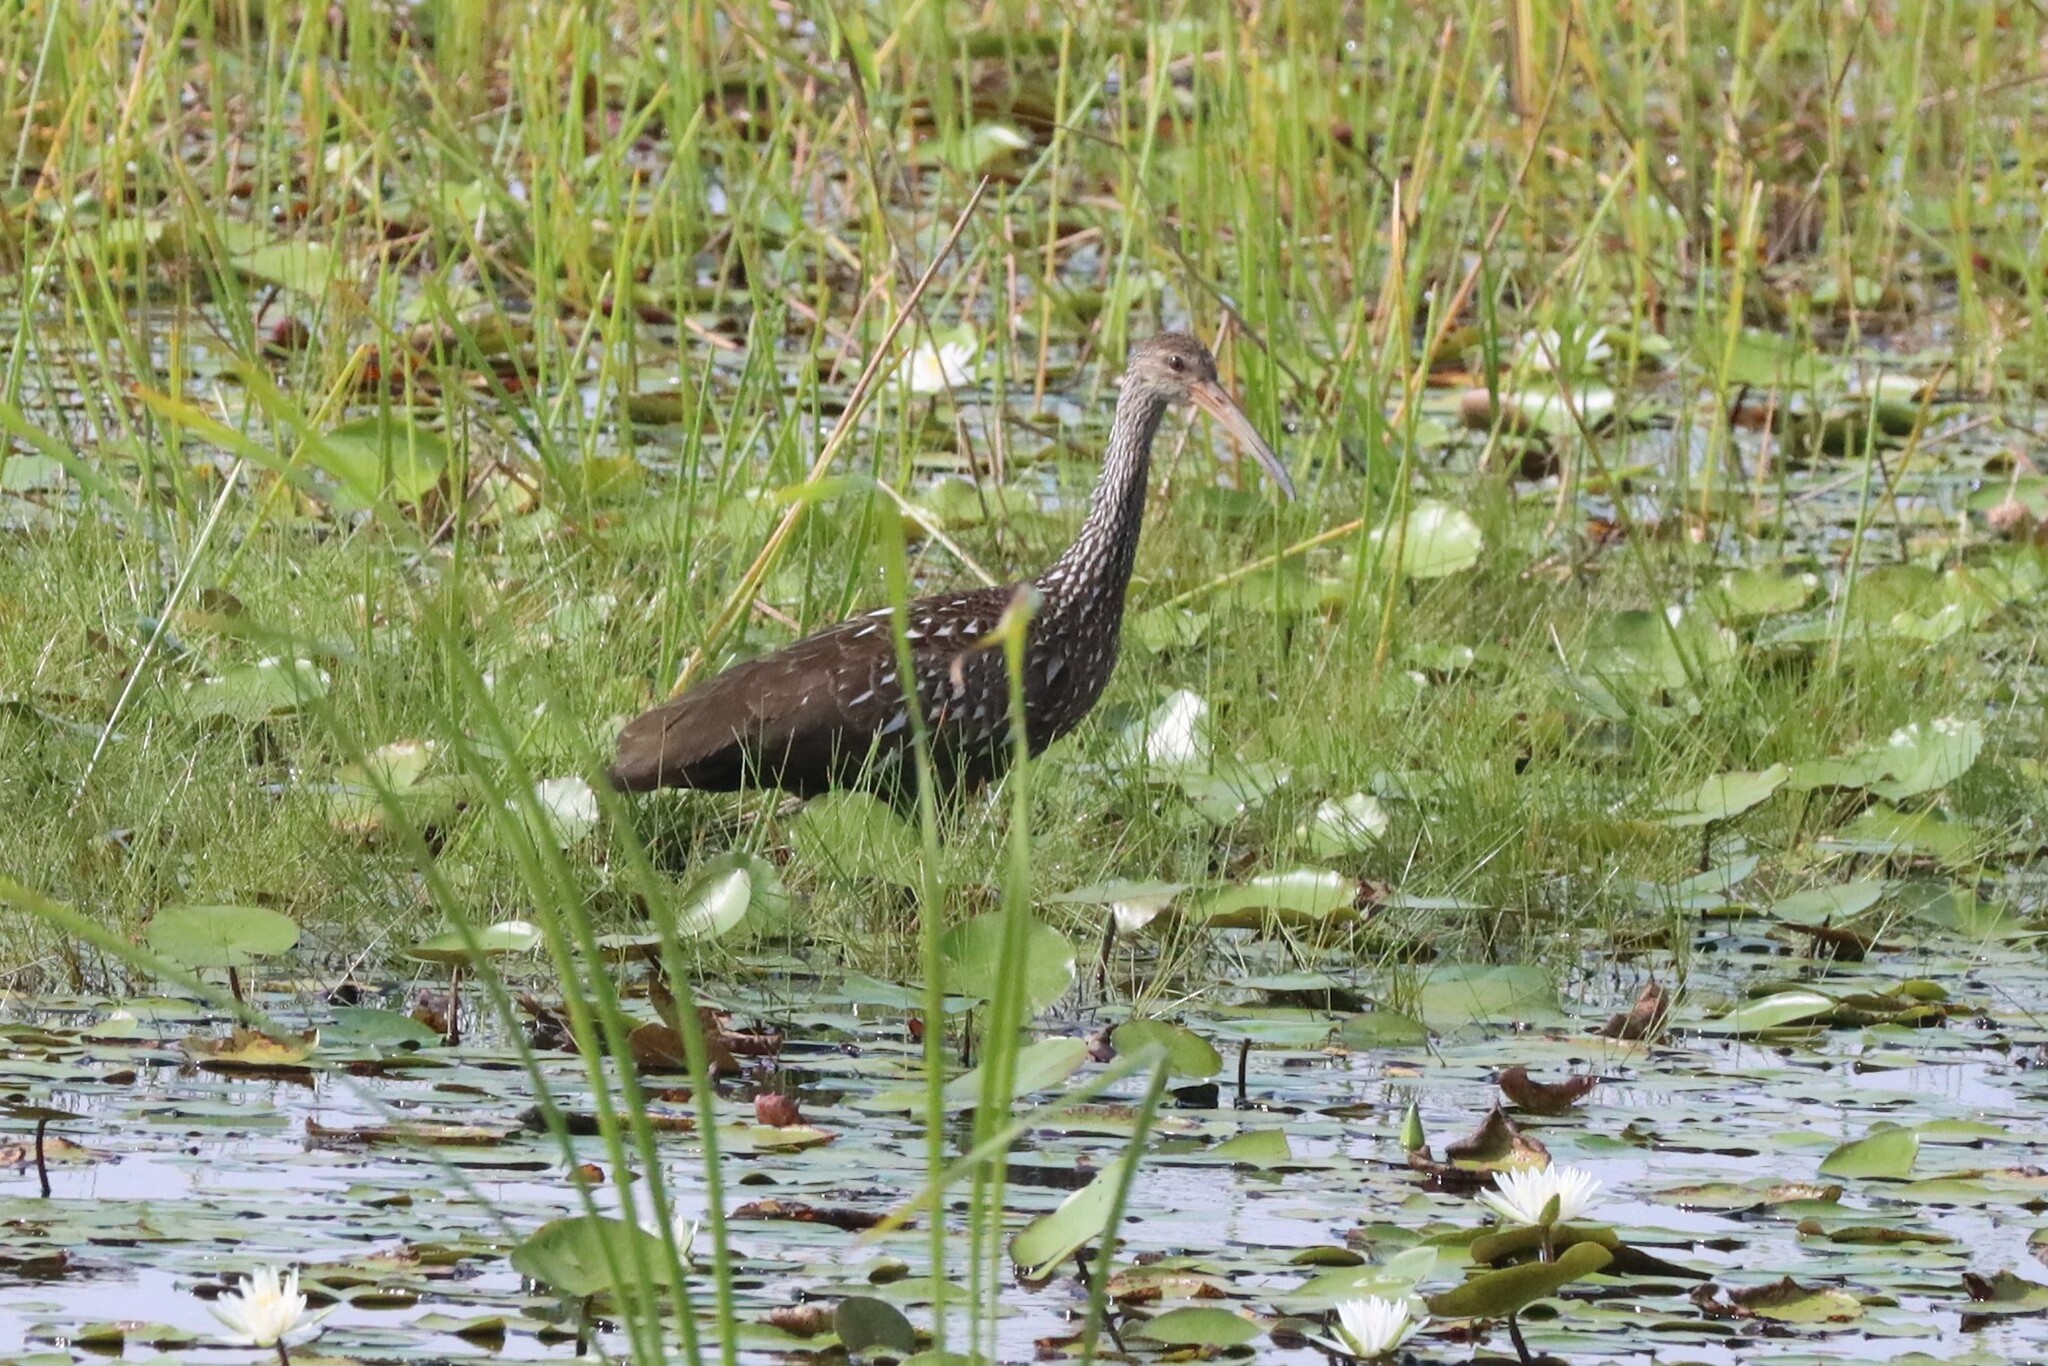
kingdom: Animalia
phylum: Chordata
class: Aves
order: Gruiformes
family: Aramidae
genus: Aramus
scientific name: Aramus guarauna
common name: Limpkin
